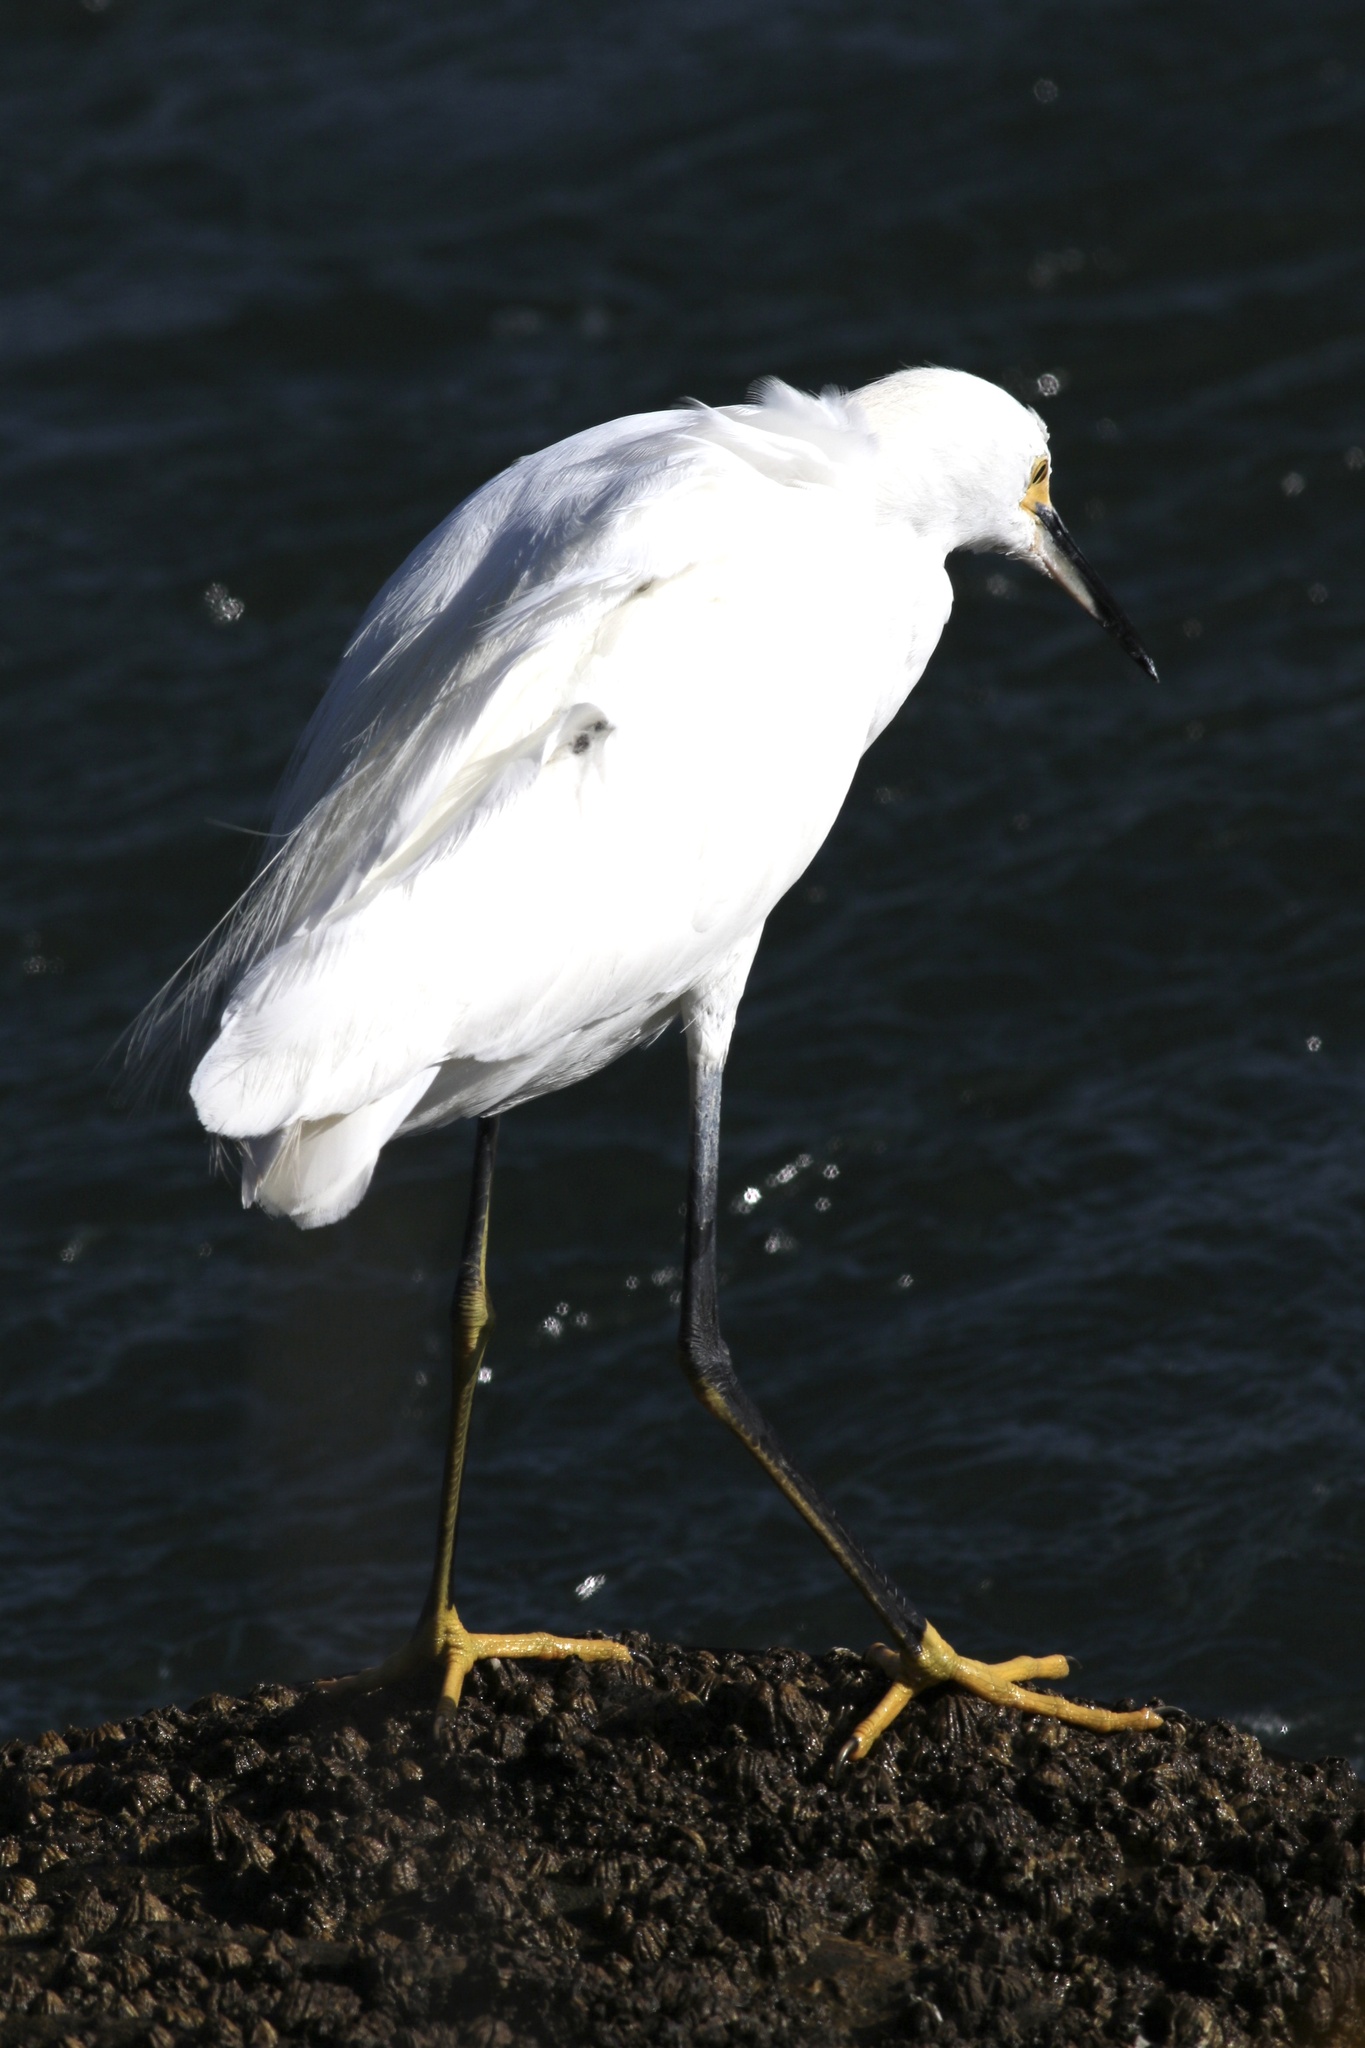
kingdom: Animalia
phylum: Chordata
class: Aves
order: Pelecaniformes
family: Ardeidae
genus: Egretta
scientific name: Egretta thula
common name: Snowy egret
